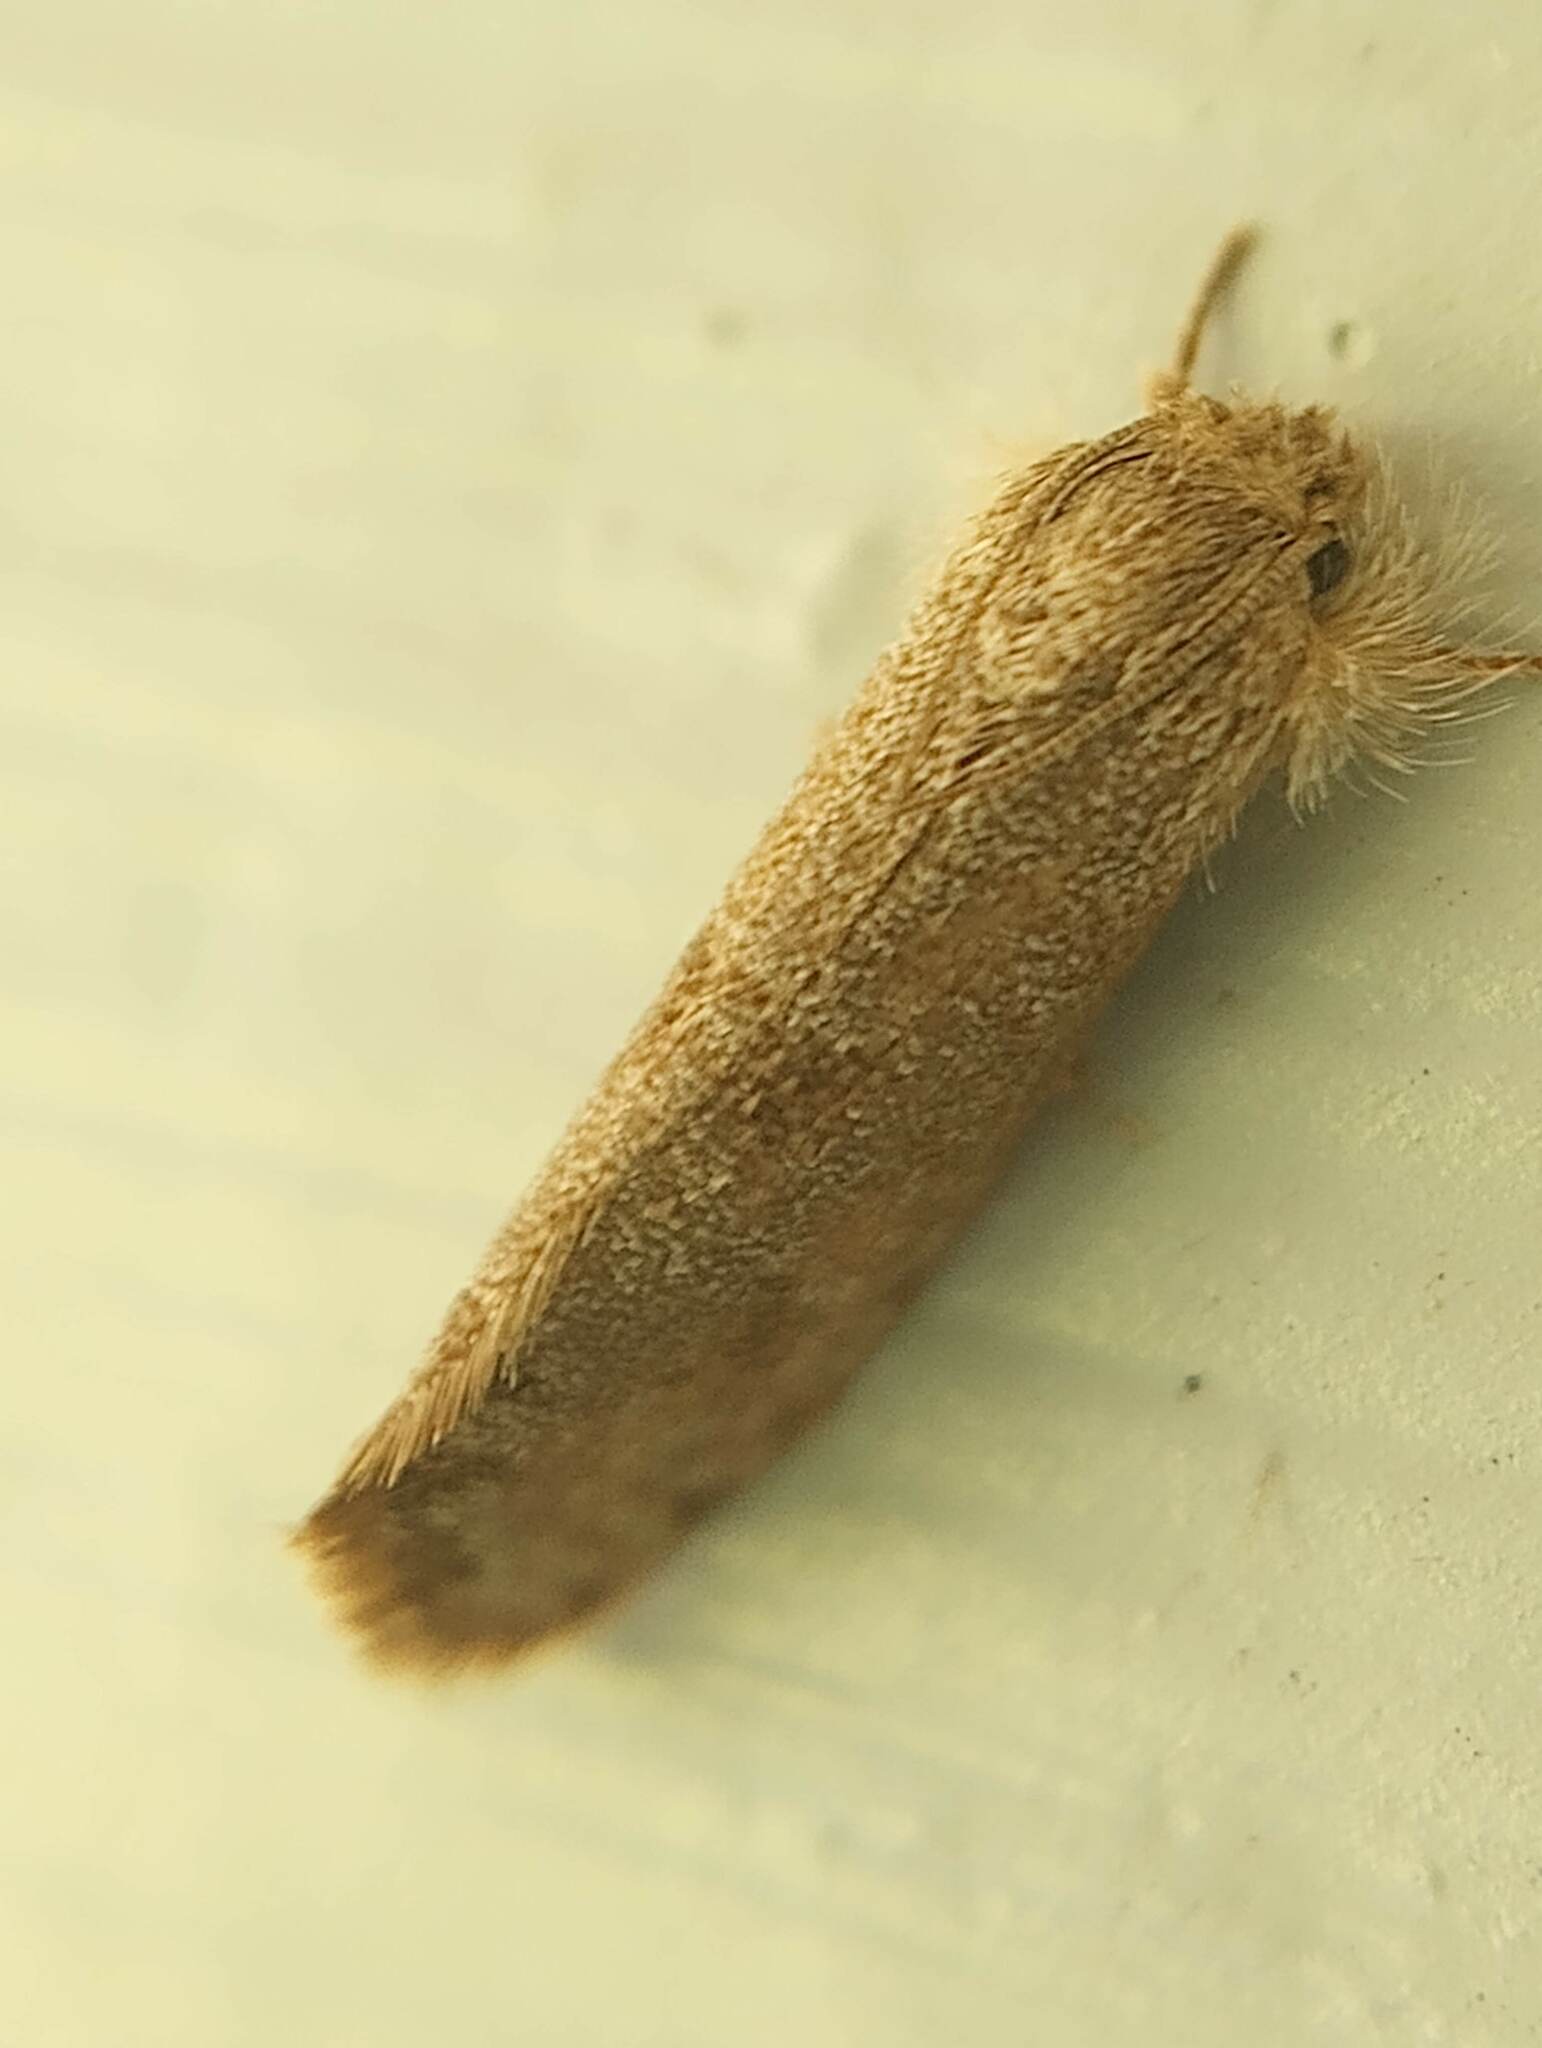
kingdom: Animalia
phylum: Arthropoda
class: Insecta
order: Lepidoptera
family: Tineidae
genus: Acrolophus
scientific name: Acrolophus heppneri
